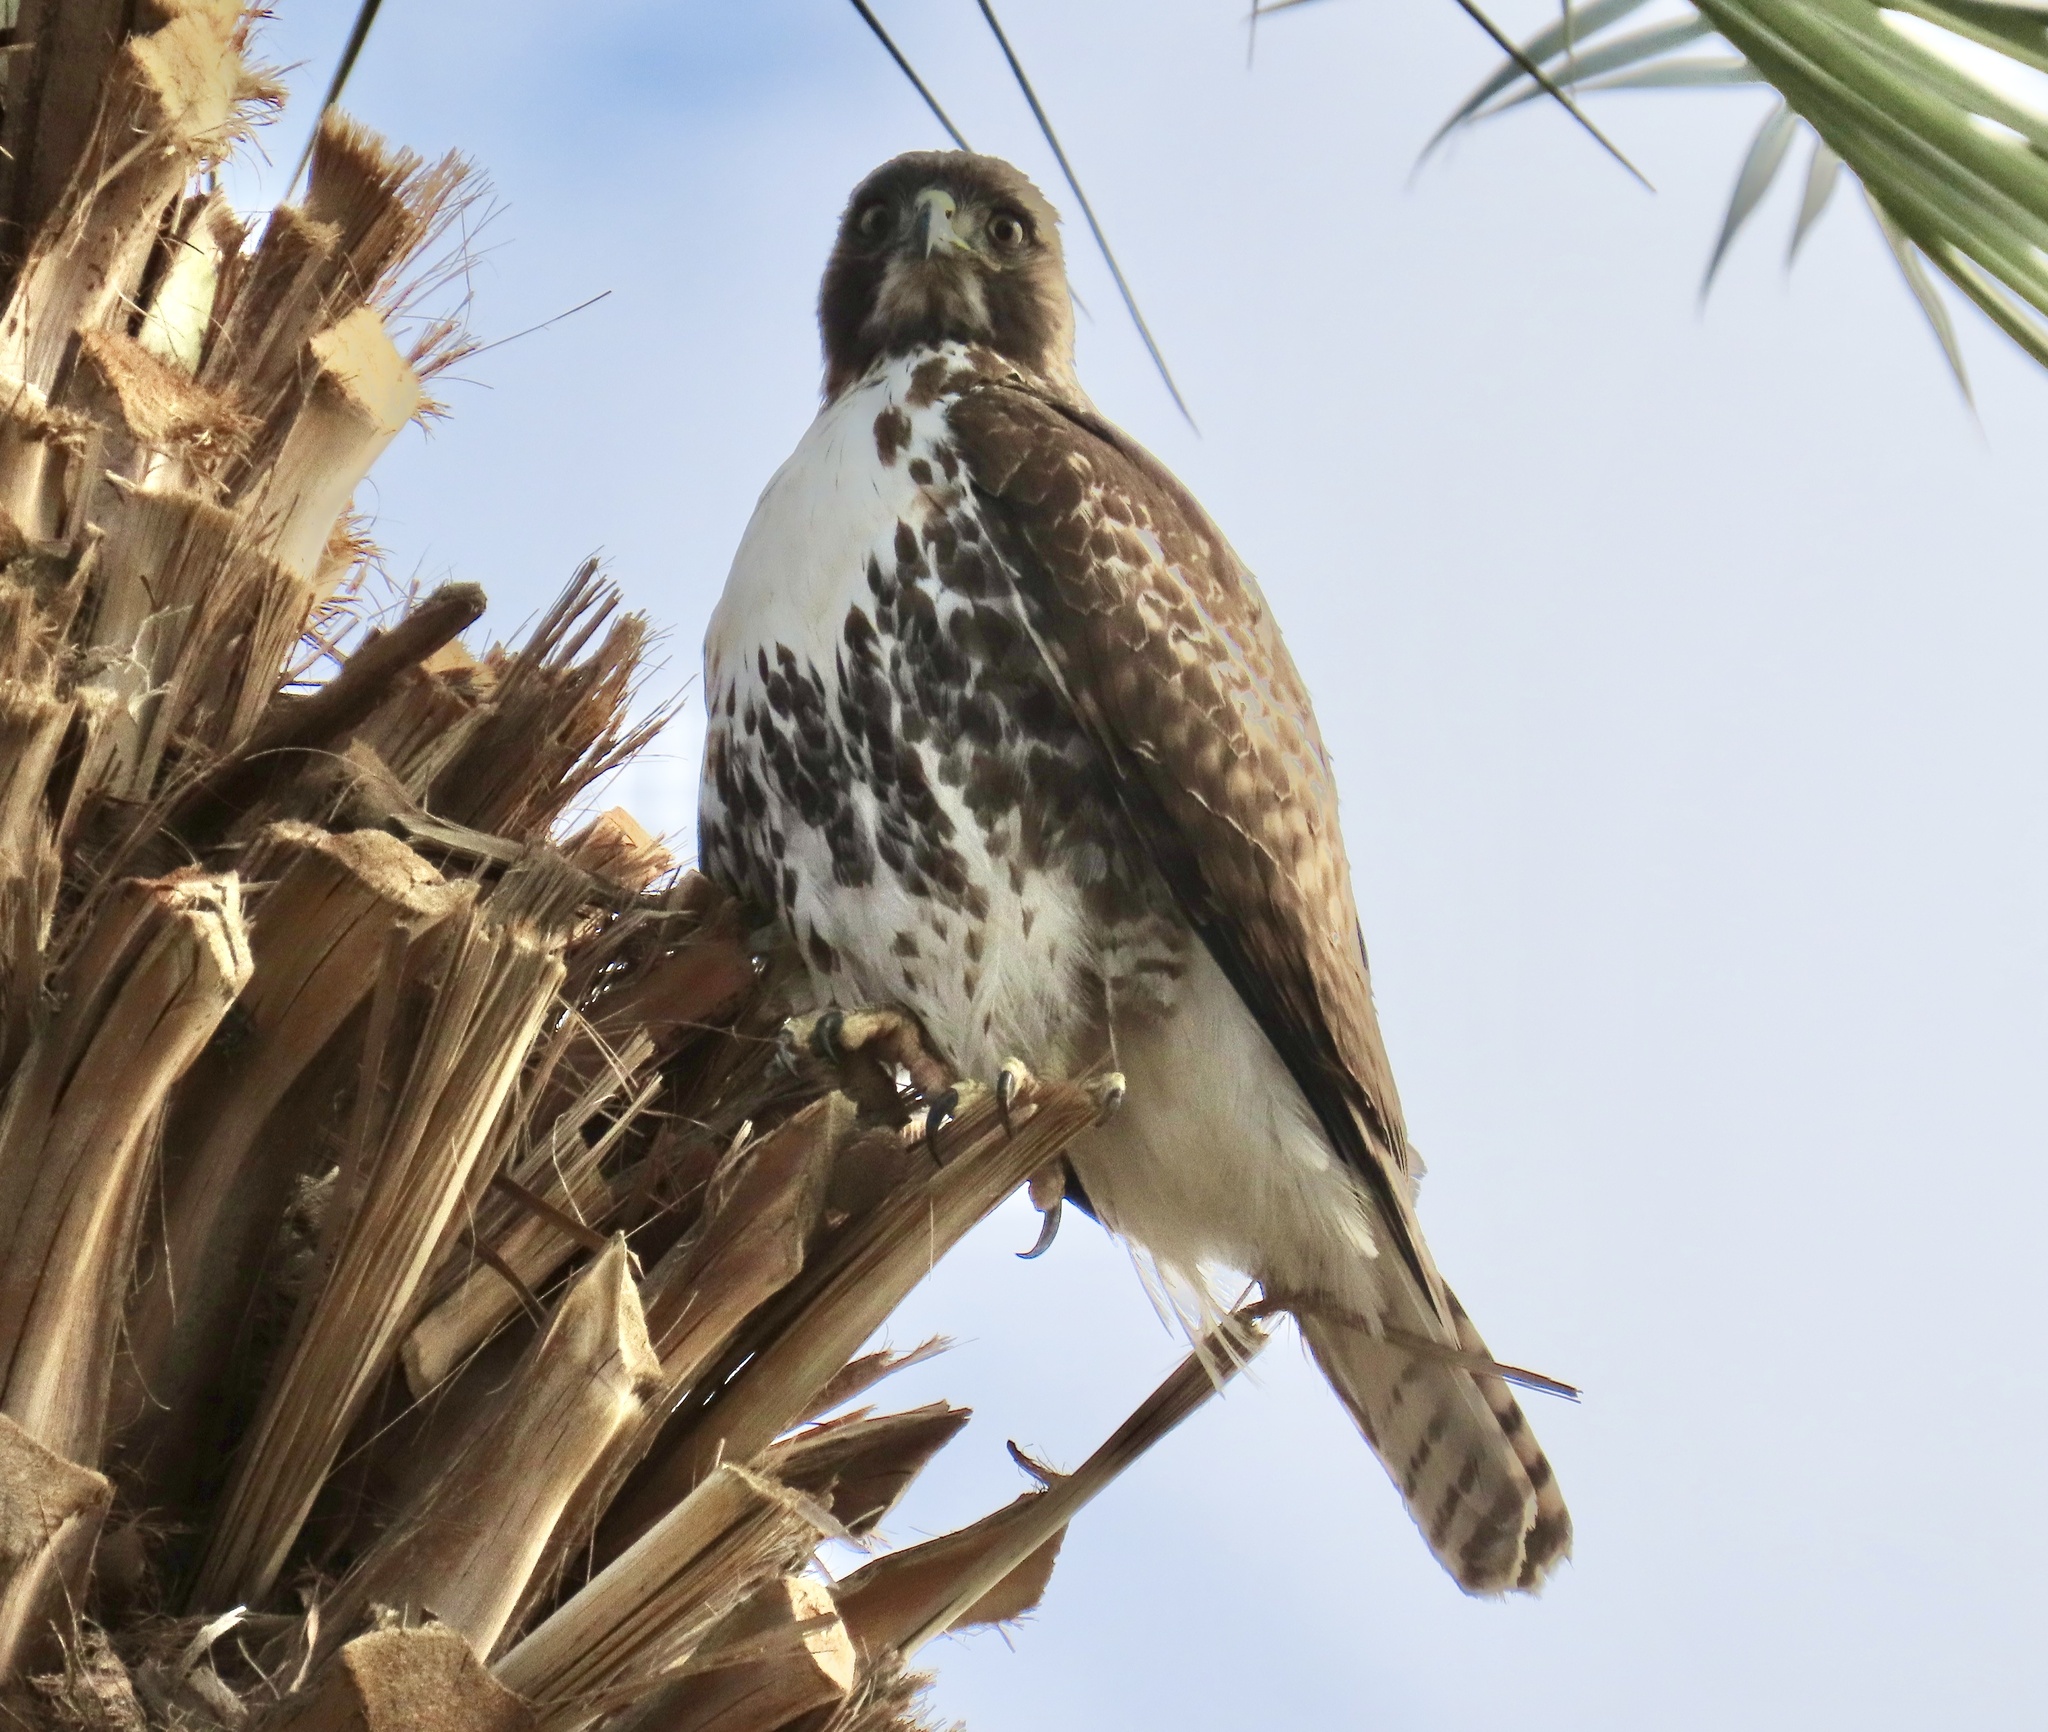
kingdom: Animalia
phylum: Chordata
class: Aves
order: Accipitriformes
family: Accipitridae
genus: Buteo
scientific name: Buteo jamaicensis
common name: Red-tailed hawk
